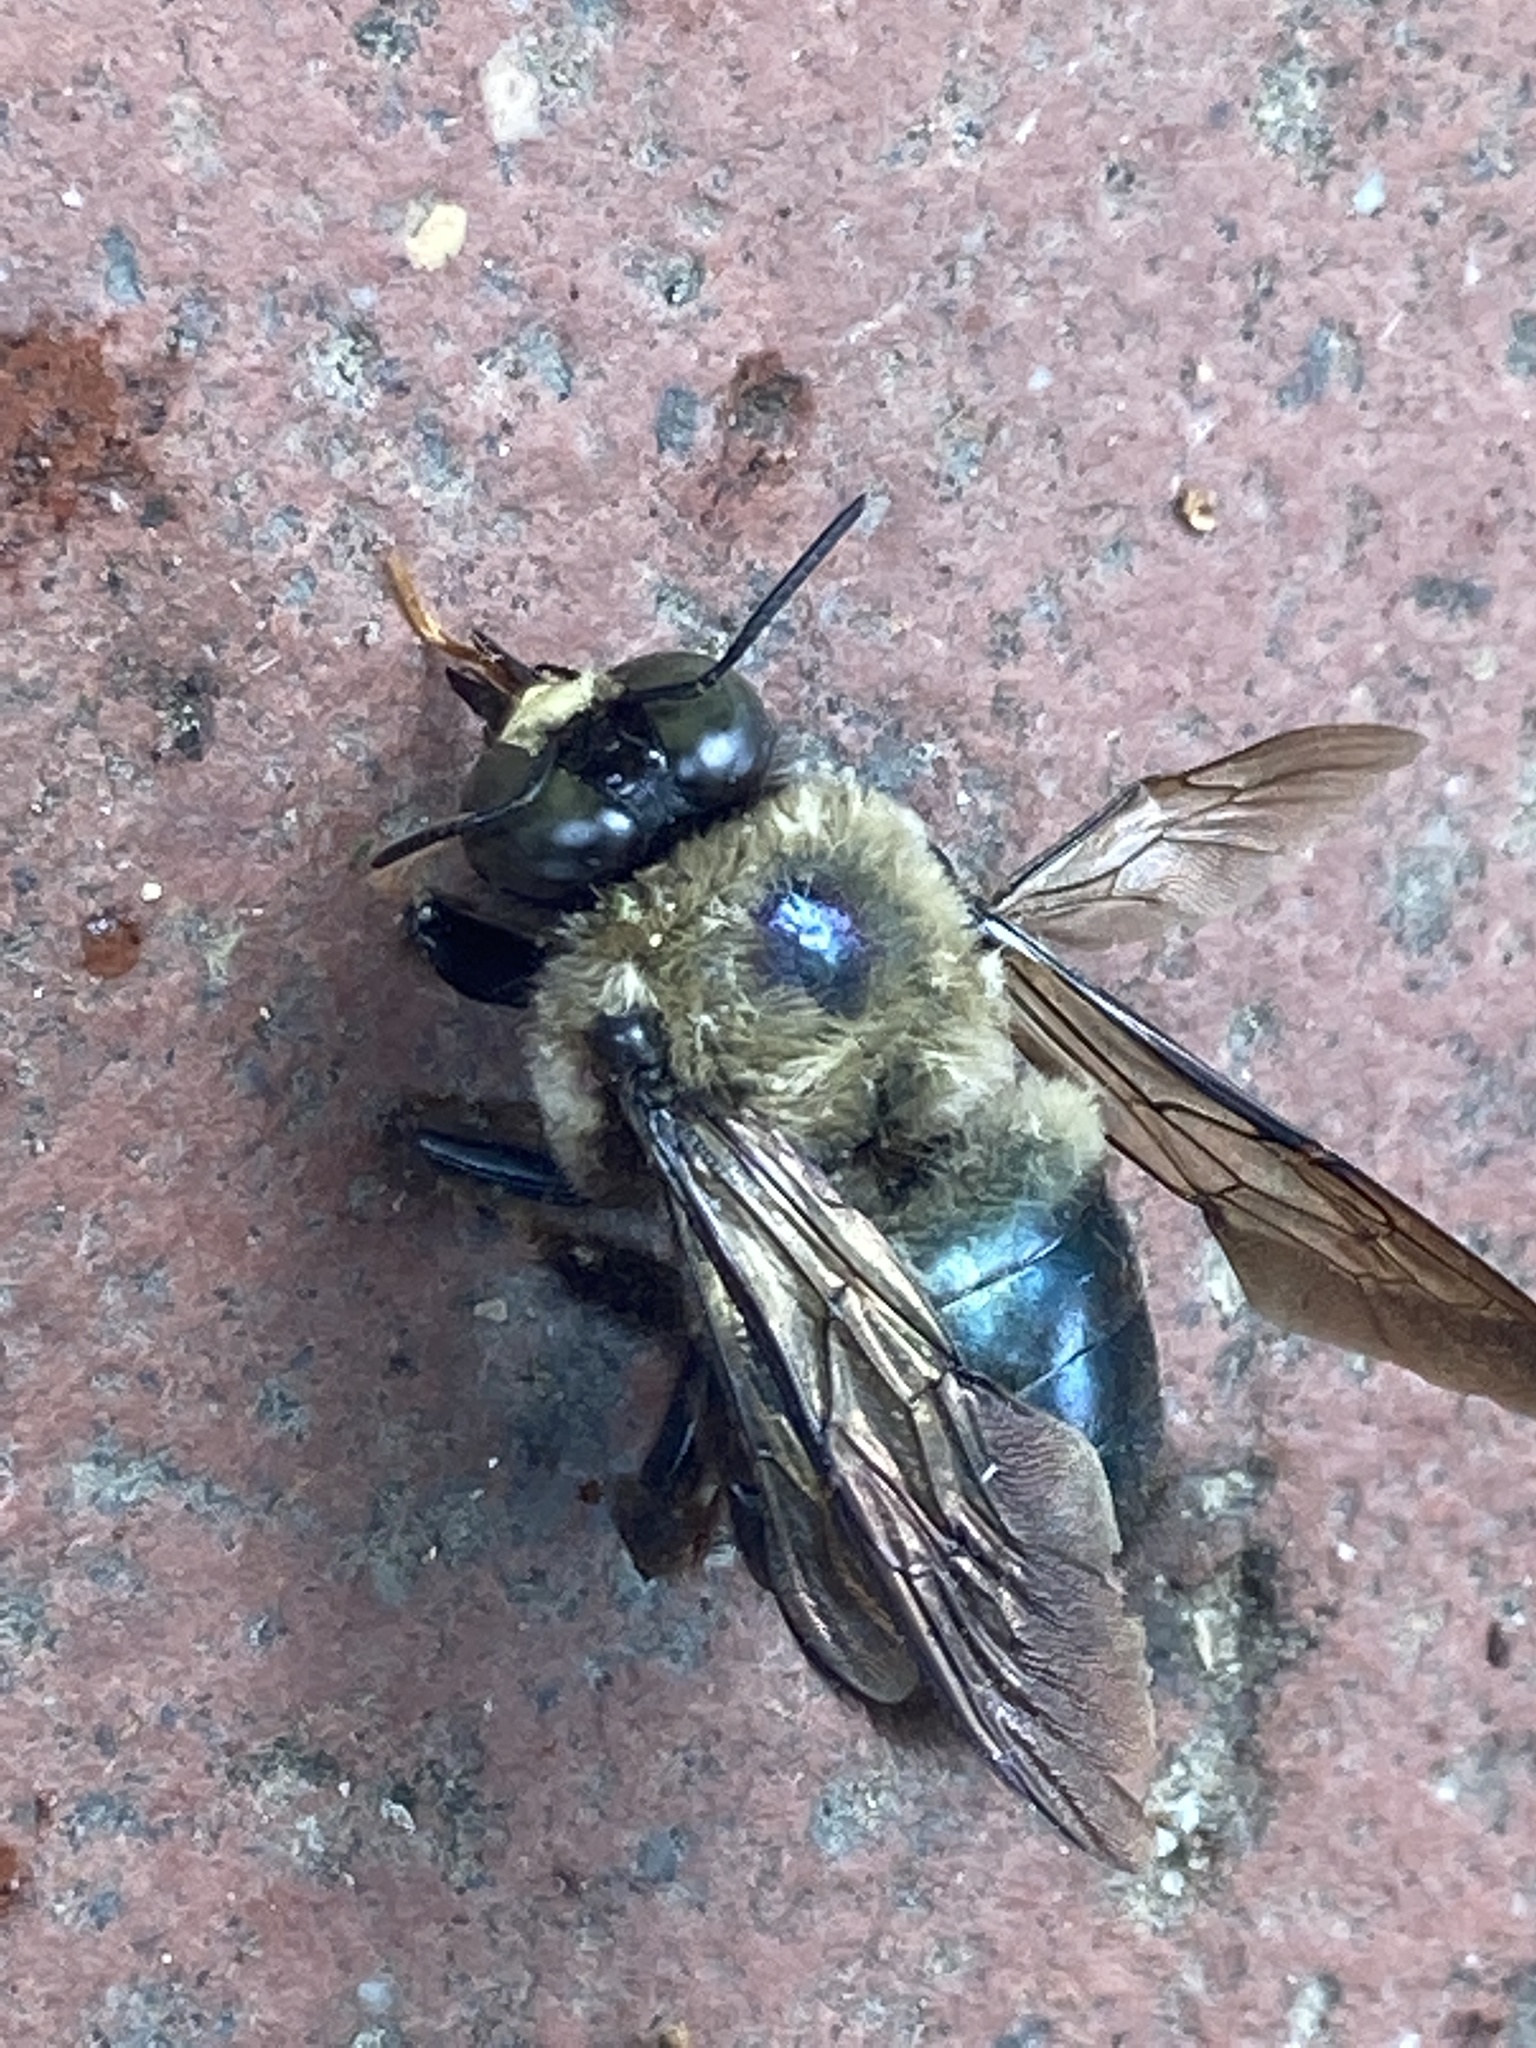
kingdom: Animalia
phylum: Arthropoda
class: Insecta
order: Hymenoptera
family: Apidae
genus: Xylocopa
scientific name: Xylocopa virginica
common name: Carpenter bee
